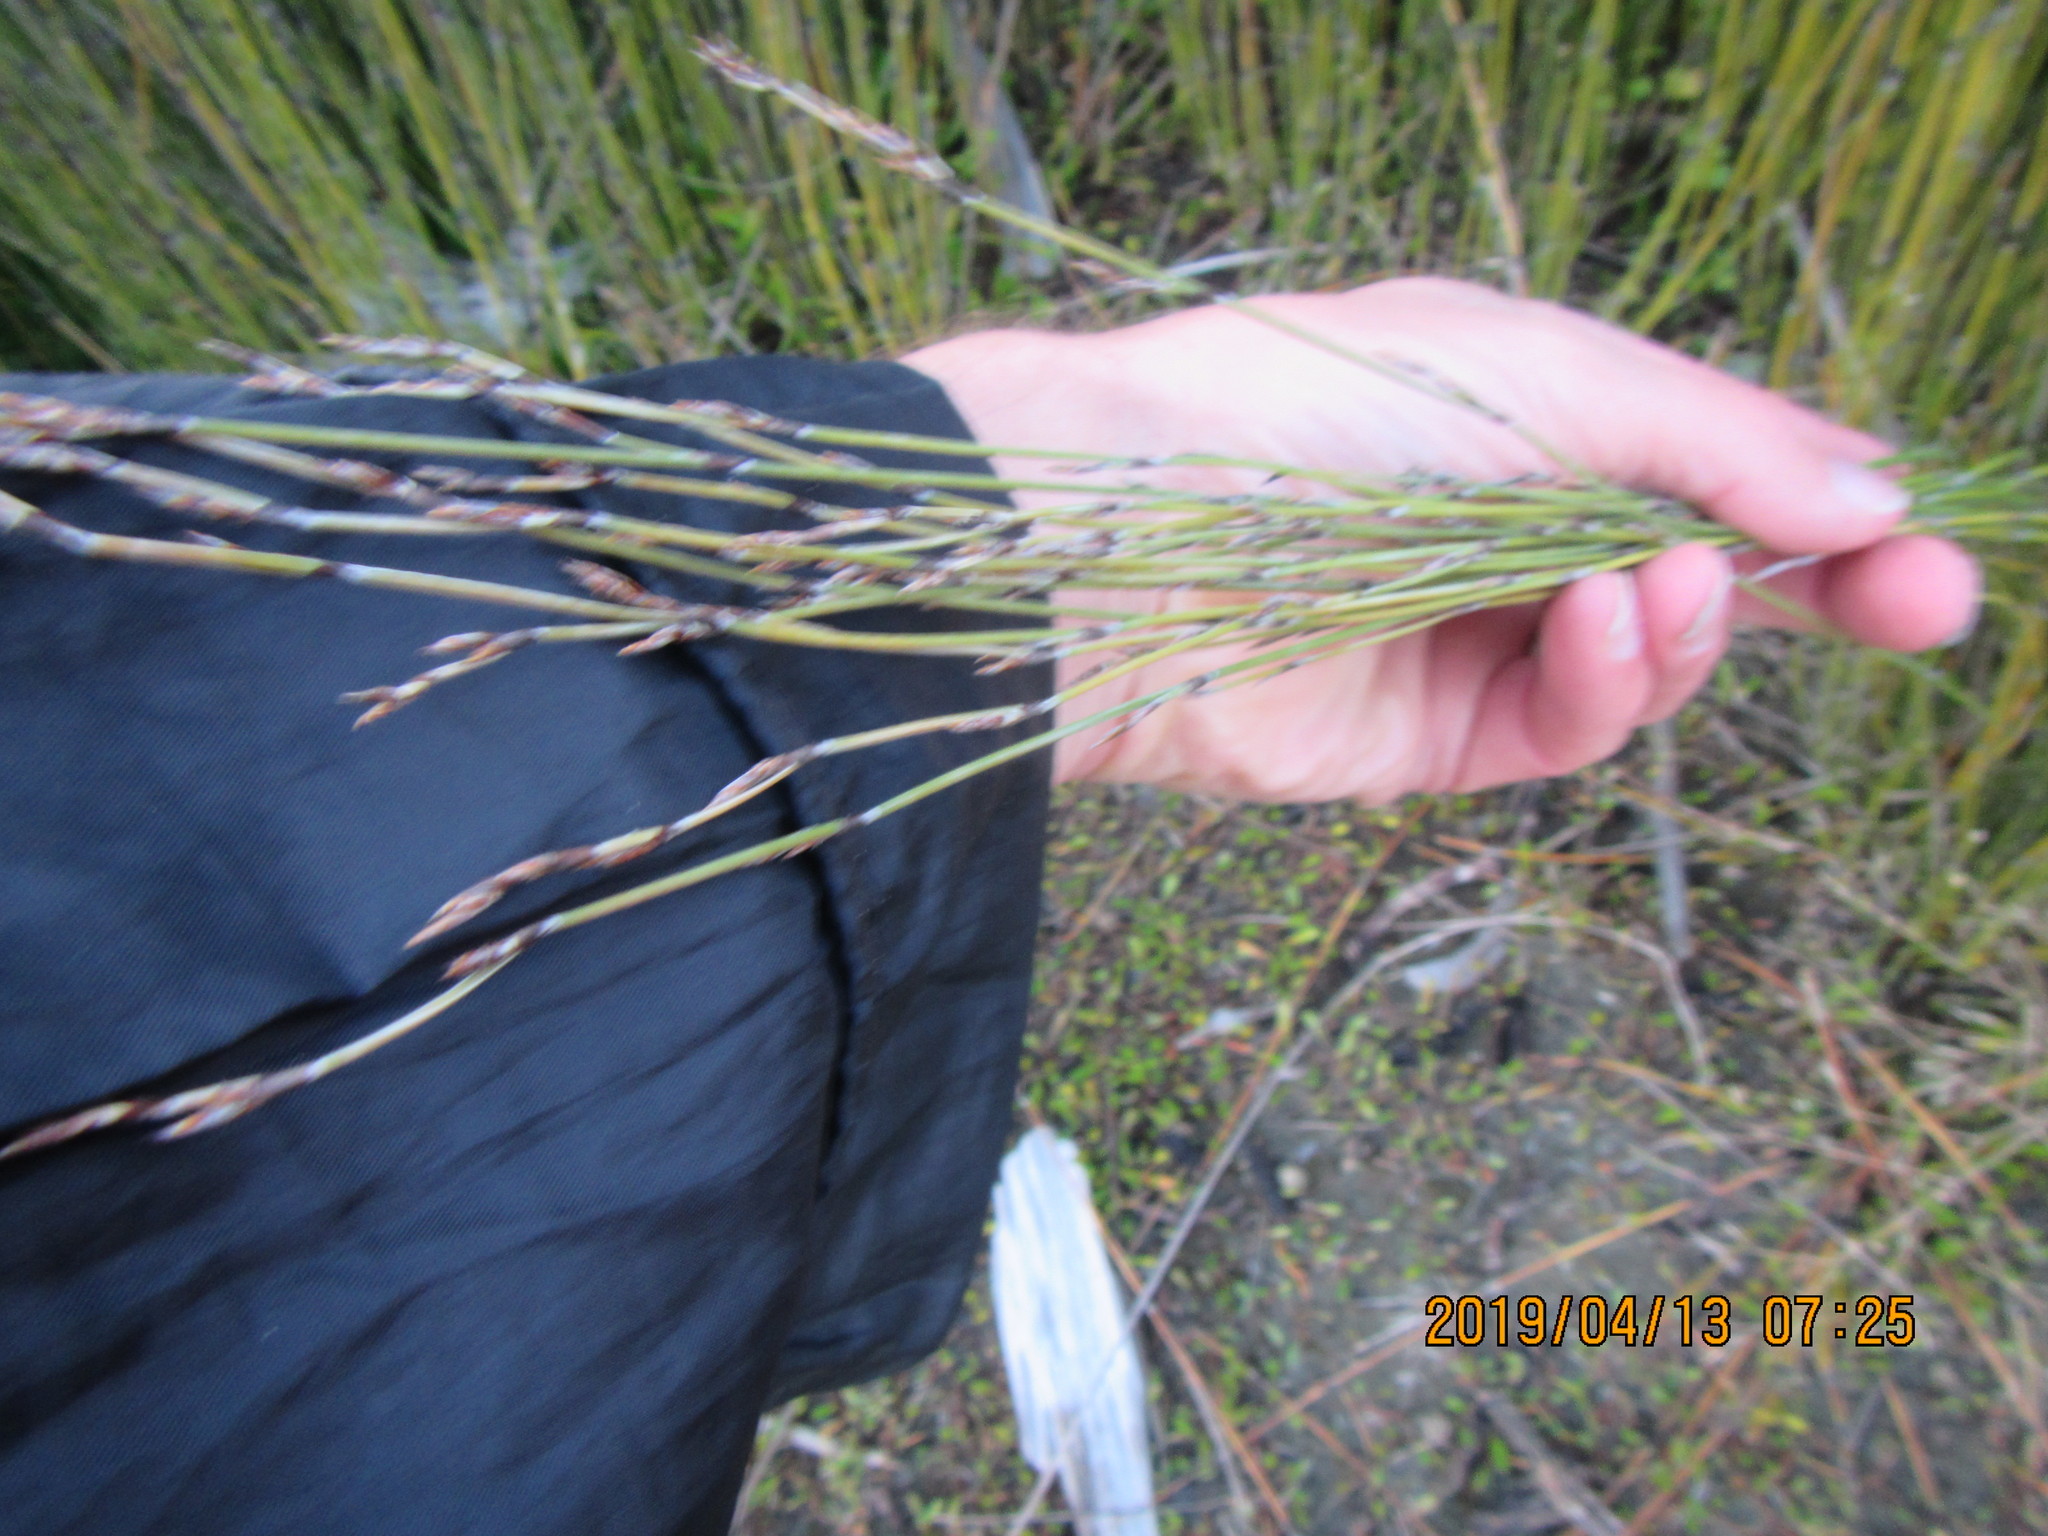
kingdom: Plantae
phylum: Tracheophyta
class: Liliopsida
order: Poales
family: Restionaceae
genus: Apodasmia
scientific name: Apodasmia similis
